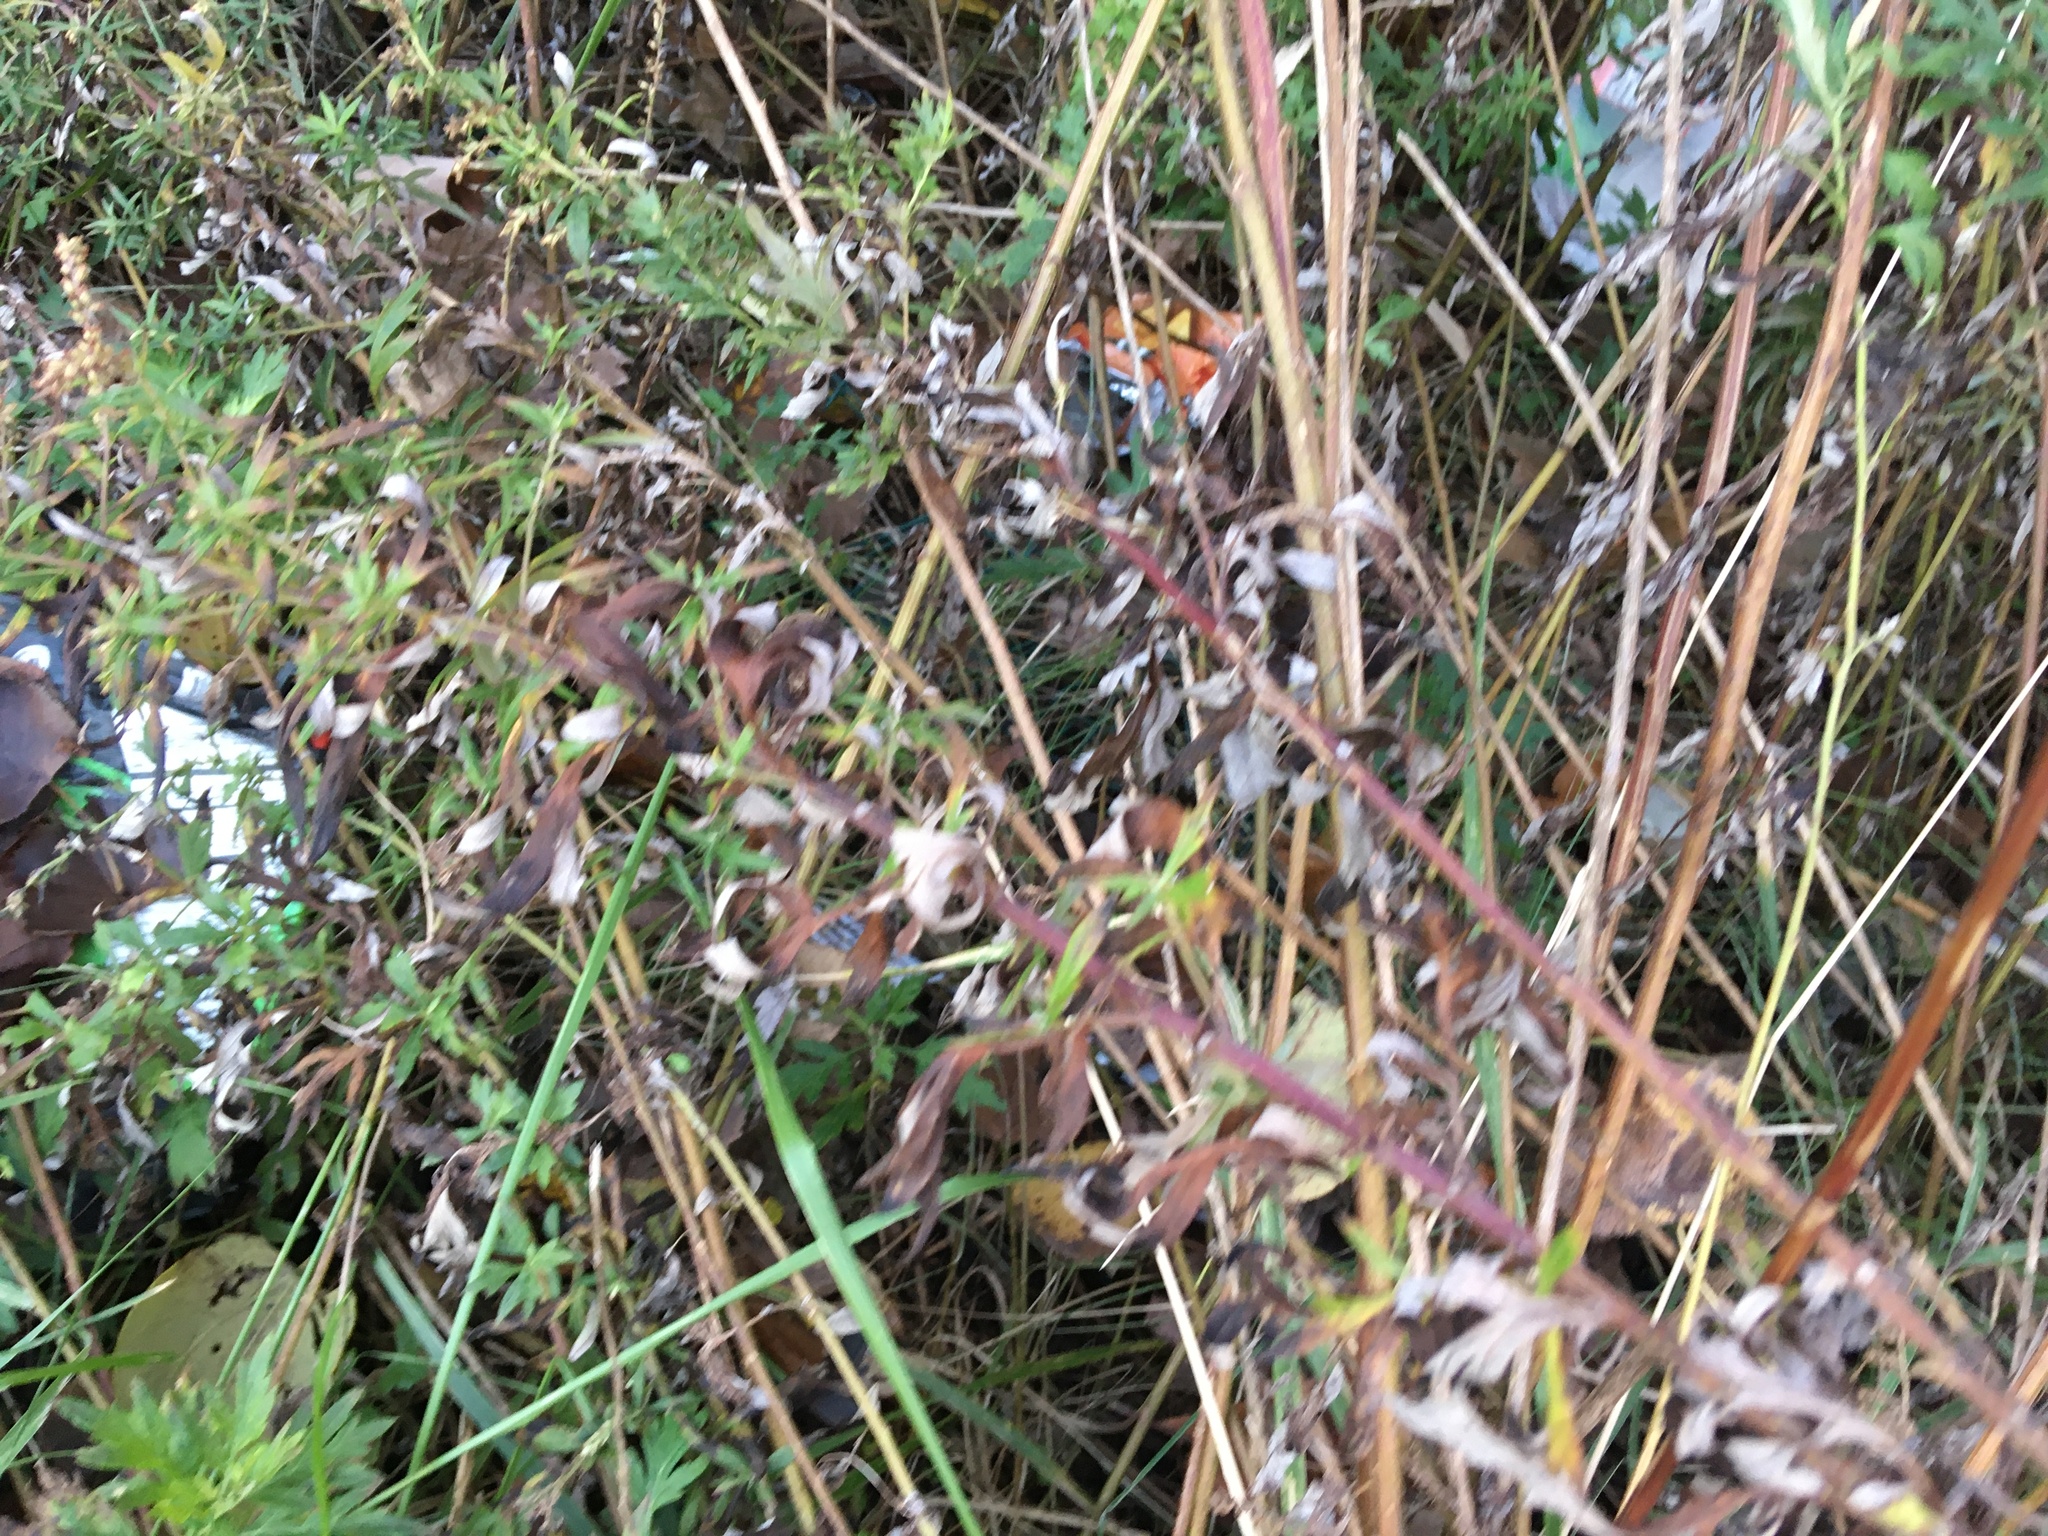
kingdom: Plantae
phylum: Tracheophyta
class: Magnoliopsida
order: Asterales
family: Asteraceae
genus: Artemisia
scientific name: Artemisia vulgaris
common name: Mugwort
